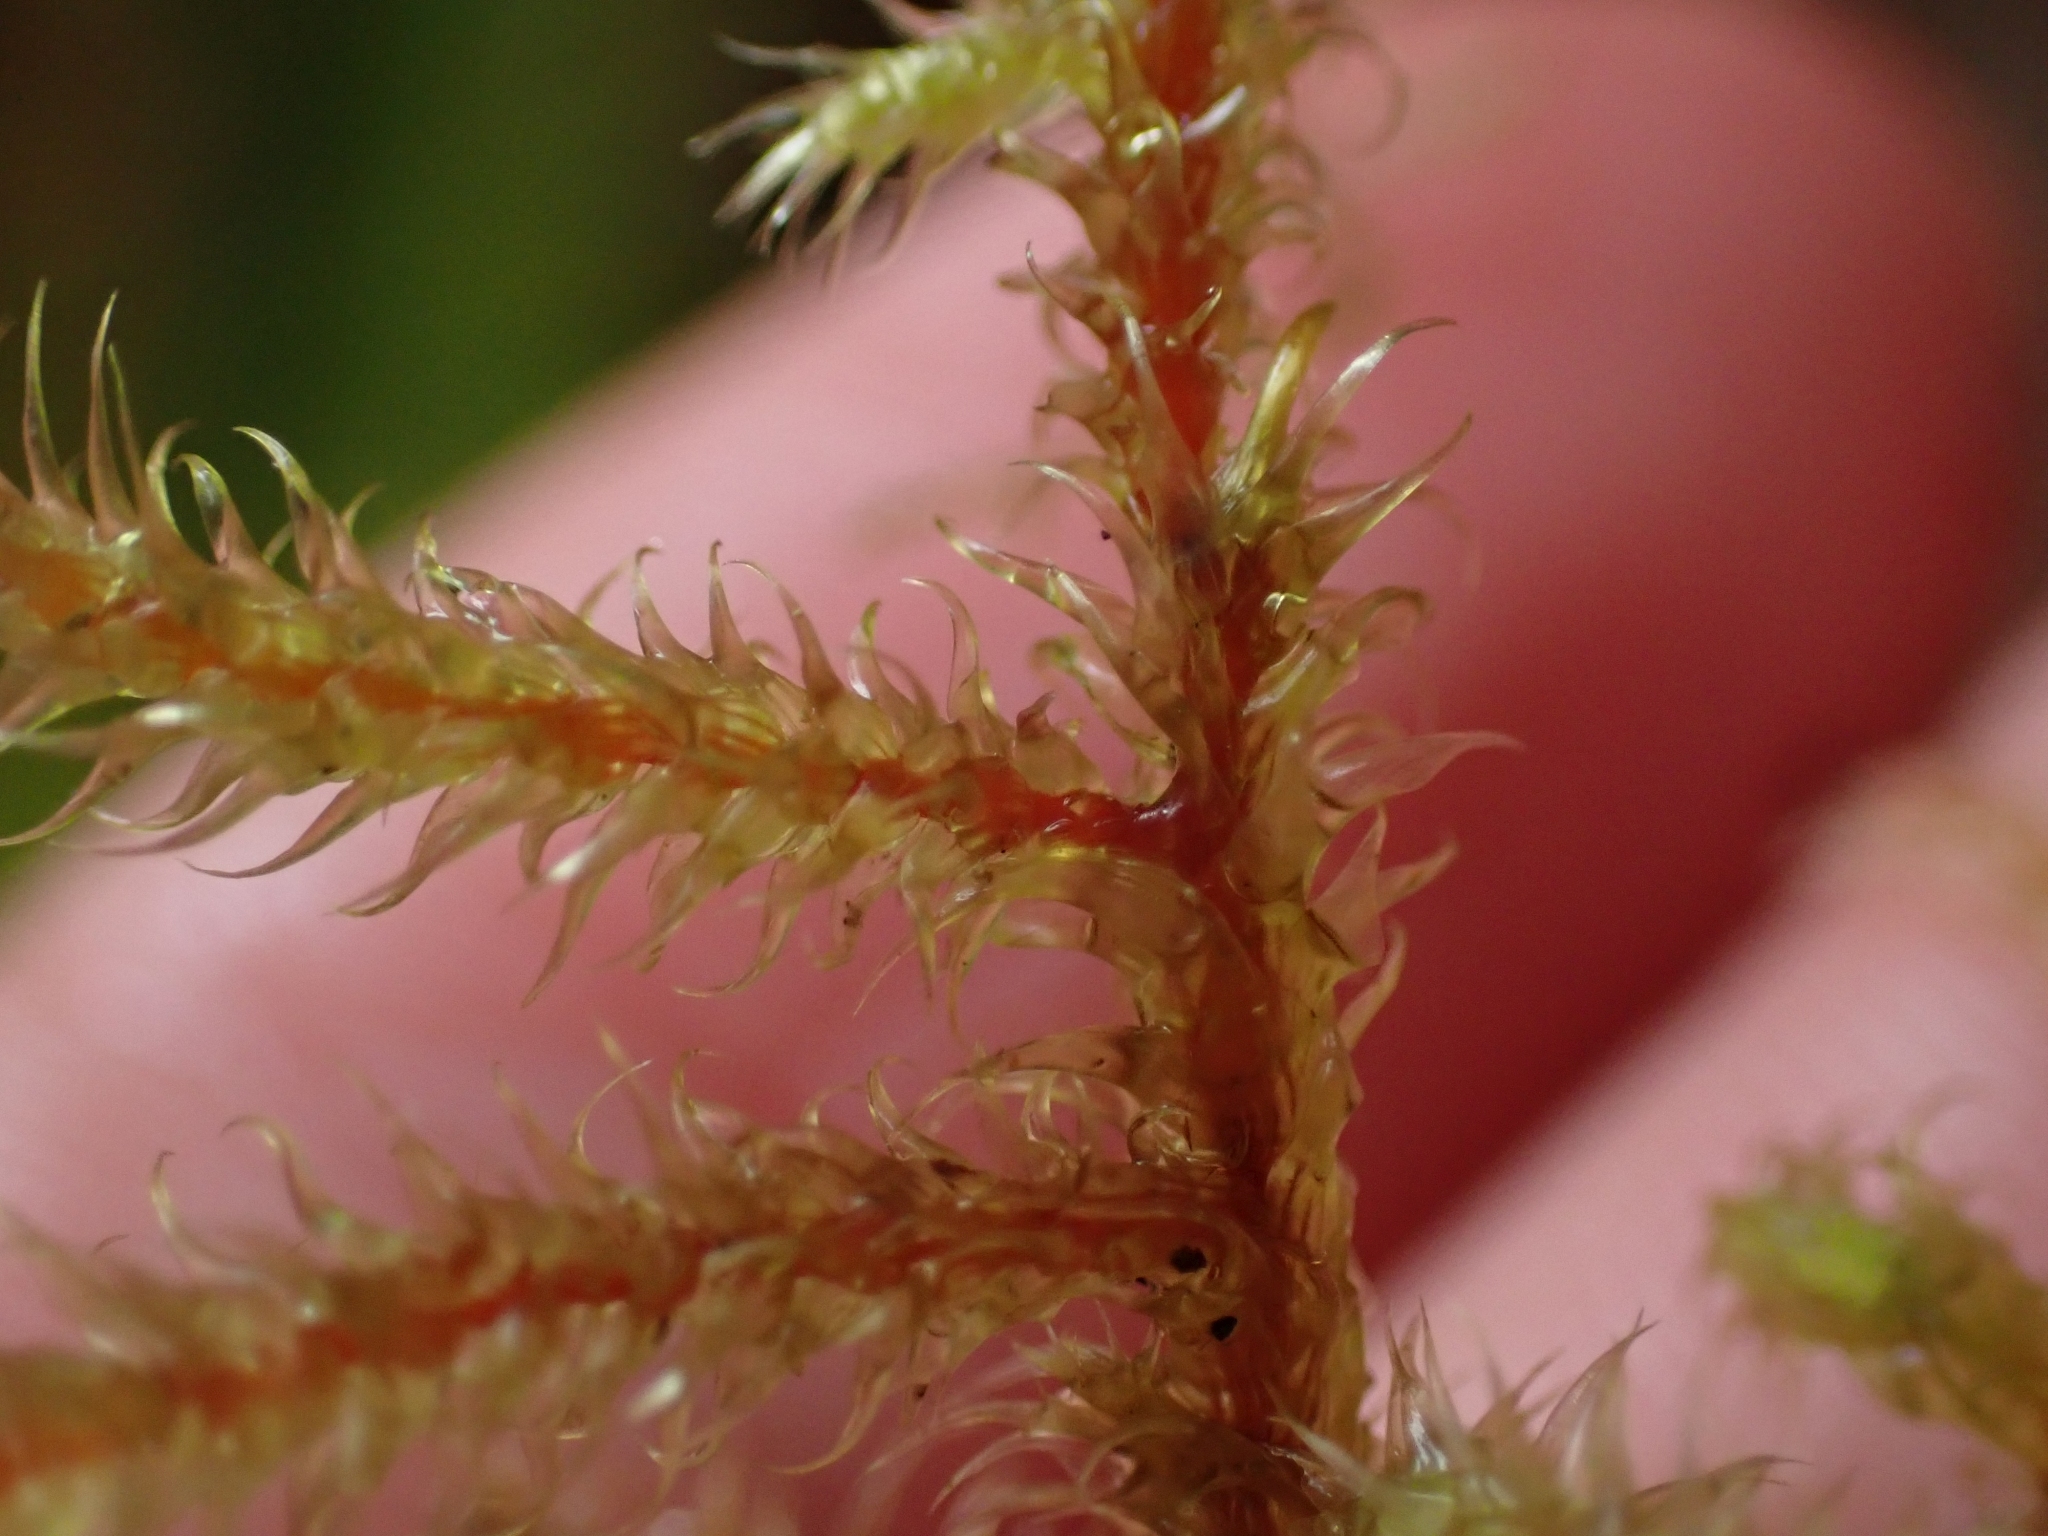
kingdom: Plantae
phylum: Bryophyta
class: Bryopsida
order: Hypnales
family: Hylocomiaceae
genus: Rhytidiadelphus
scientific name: Rhytidiadelphus loreus
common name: Lanky moss
